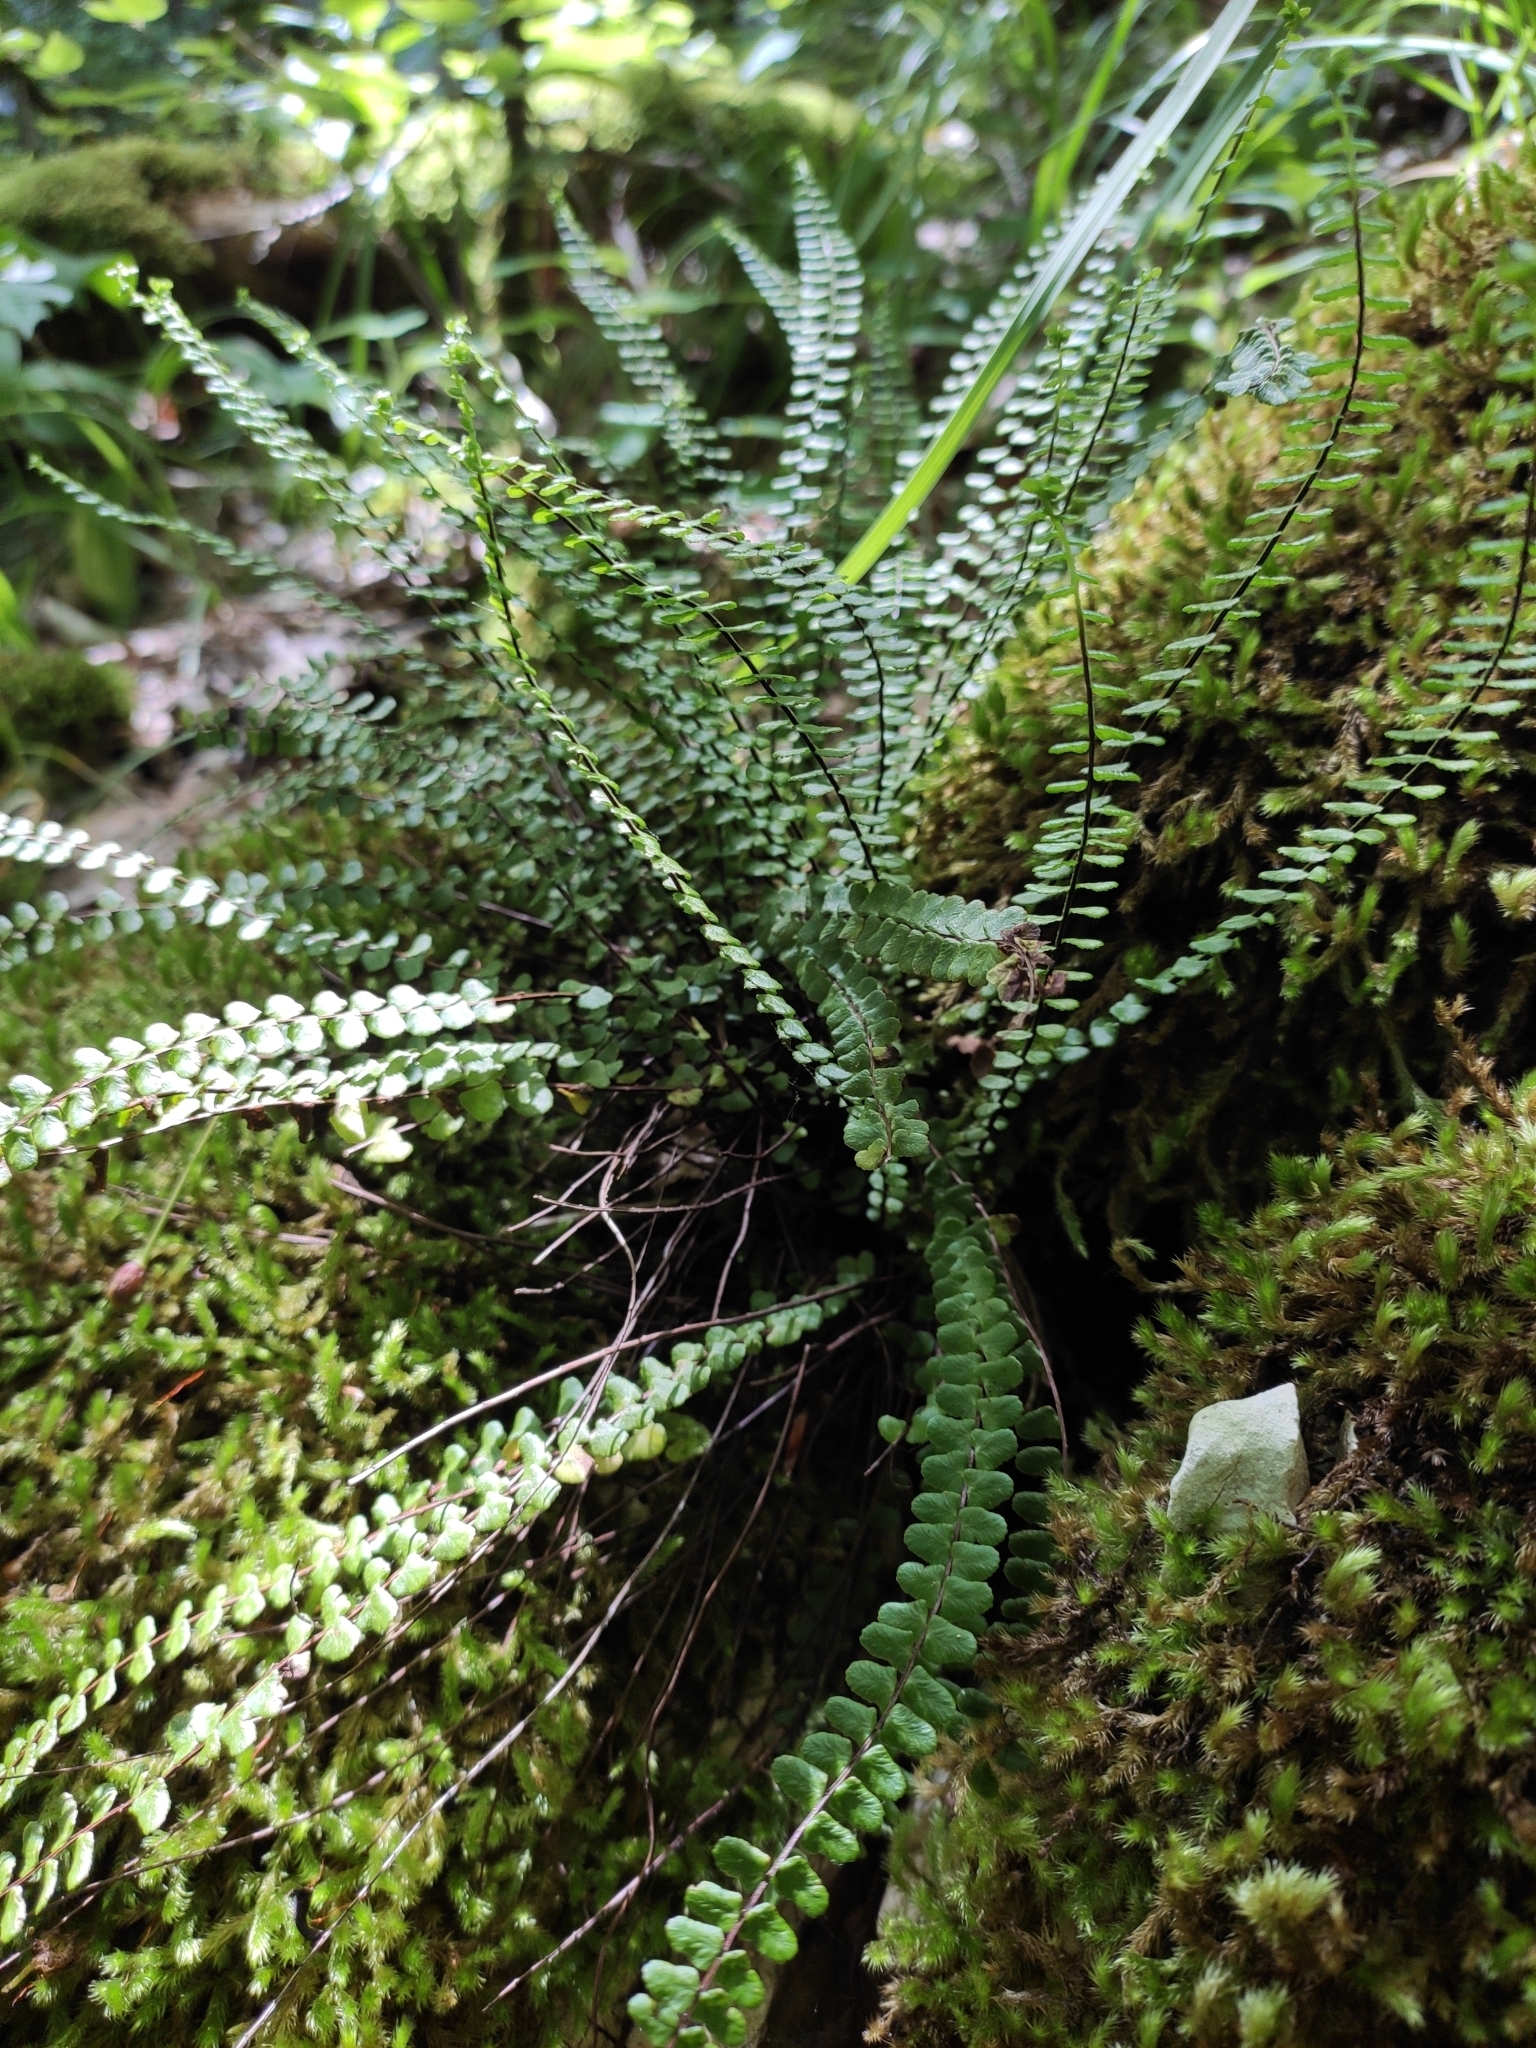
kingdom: Plantae
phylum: Tracheophyta
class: Polypodiopsida
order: Polypodiales
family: Aspleniaceae
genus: Asplenium
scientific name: Asplenium trichomanes
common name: Maidenhair spleenwort
